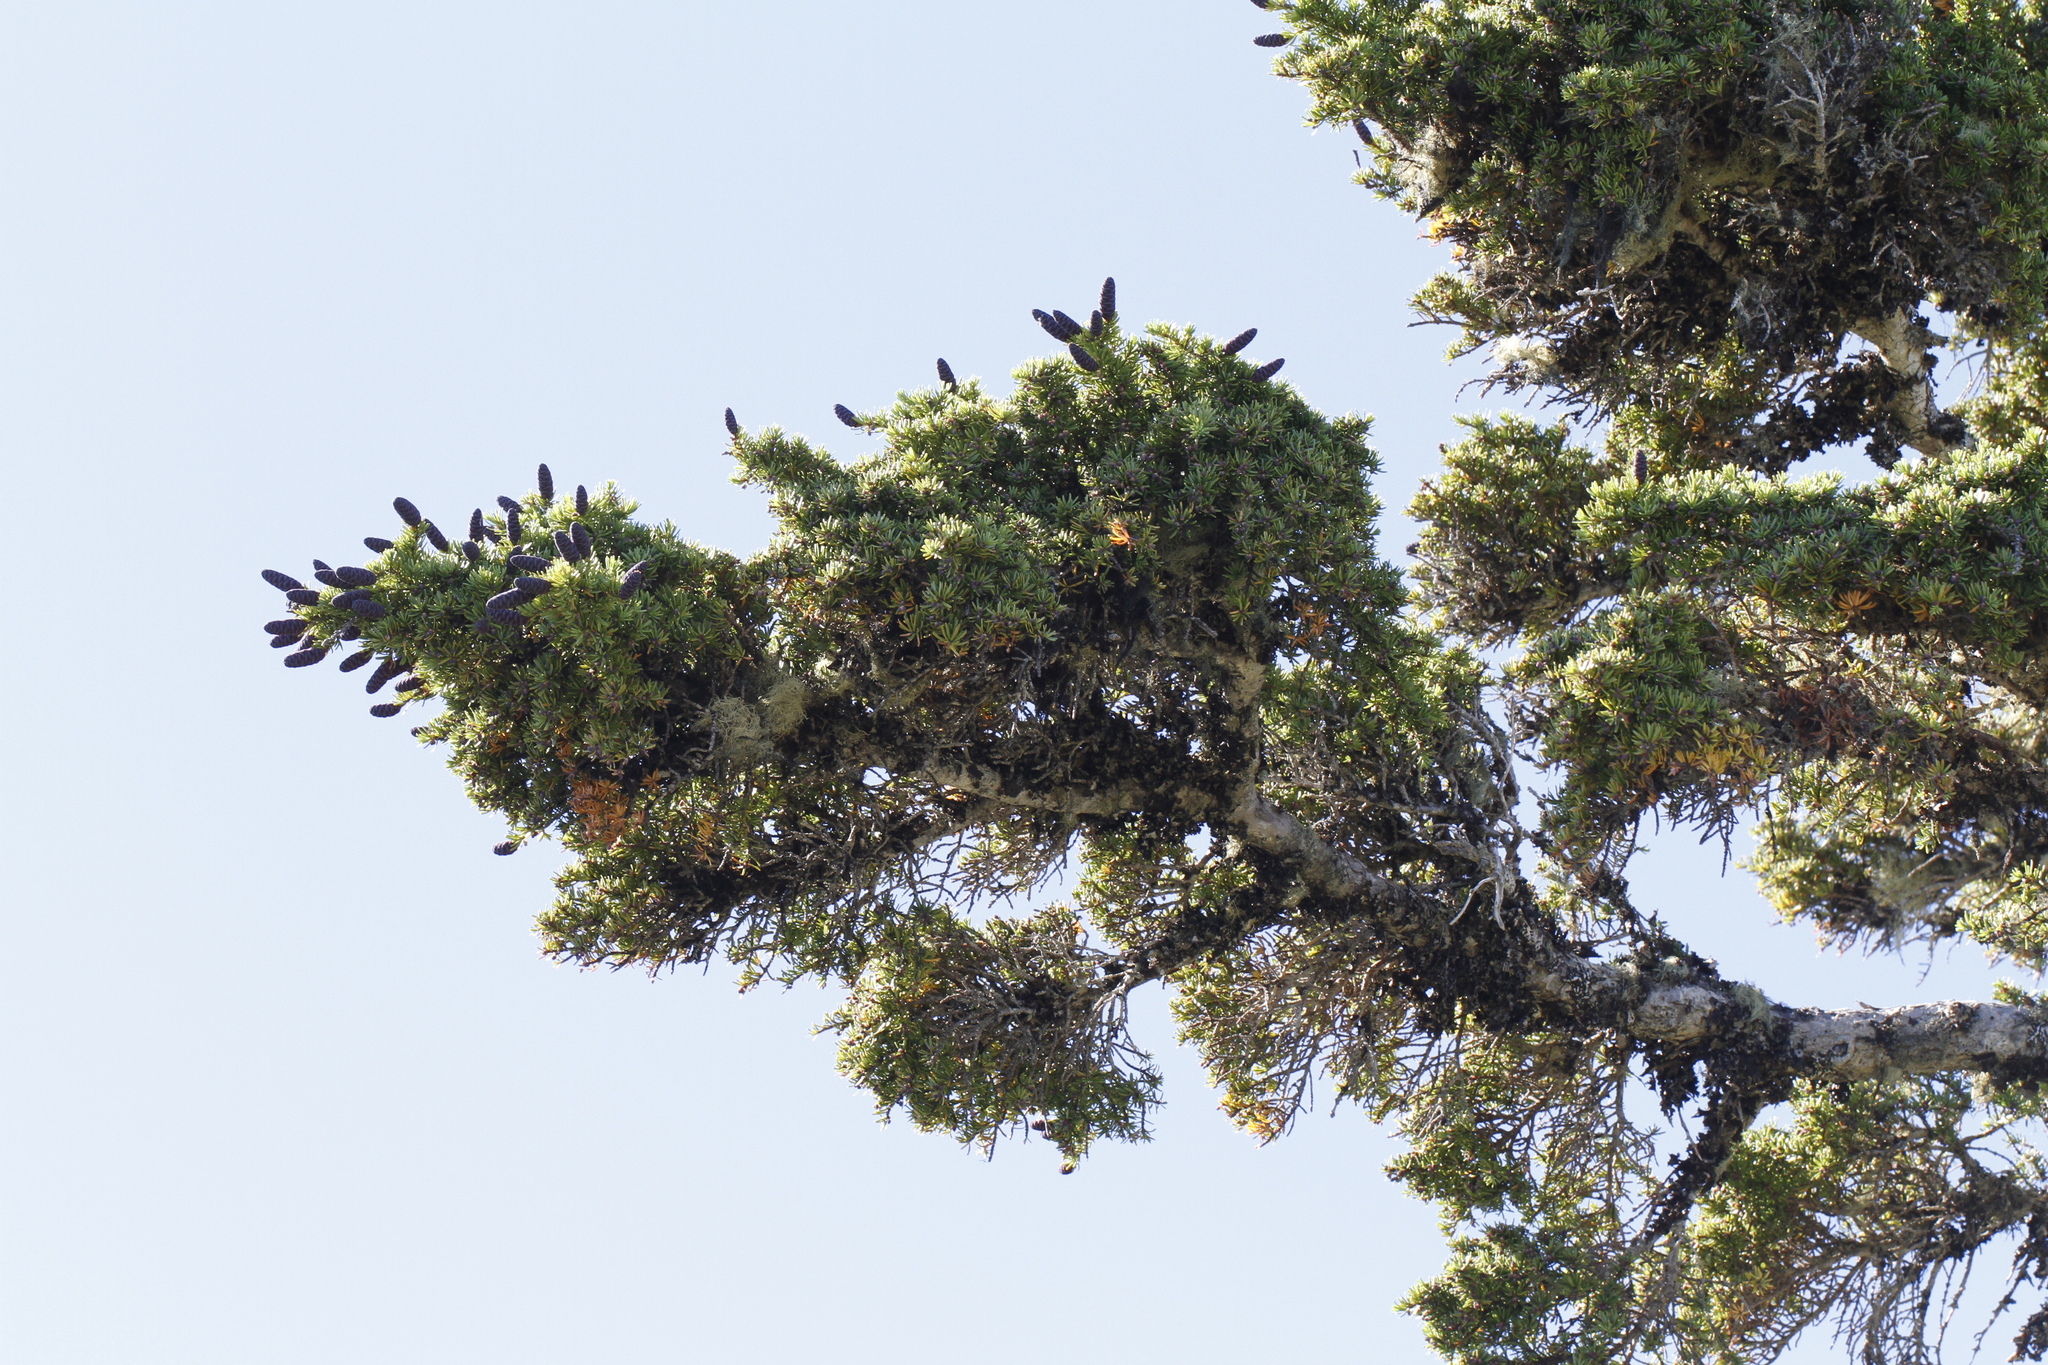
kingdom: Plantae
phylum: Tracheophyta
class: Pinopsida
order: Pinales
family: Pinaceae
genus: Tsuga
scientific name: Tsuga mertensiana
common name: Mountain hemlock
